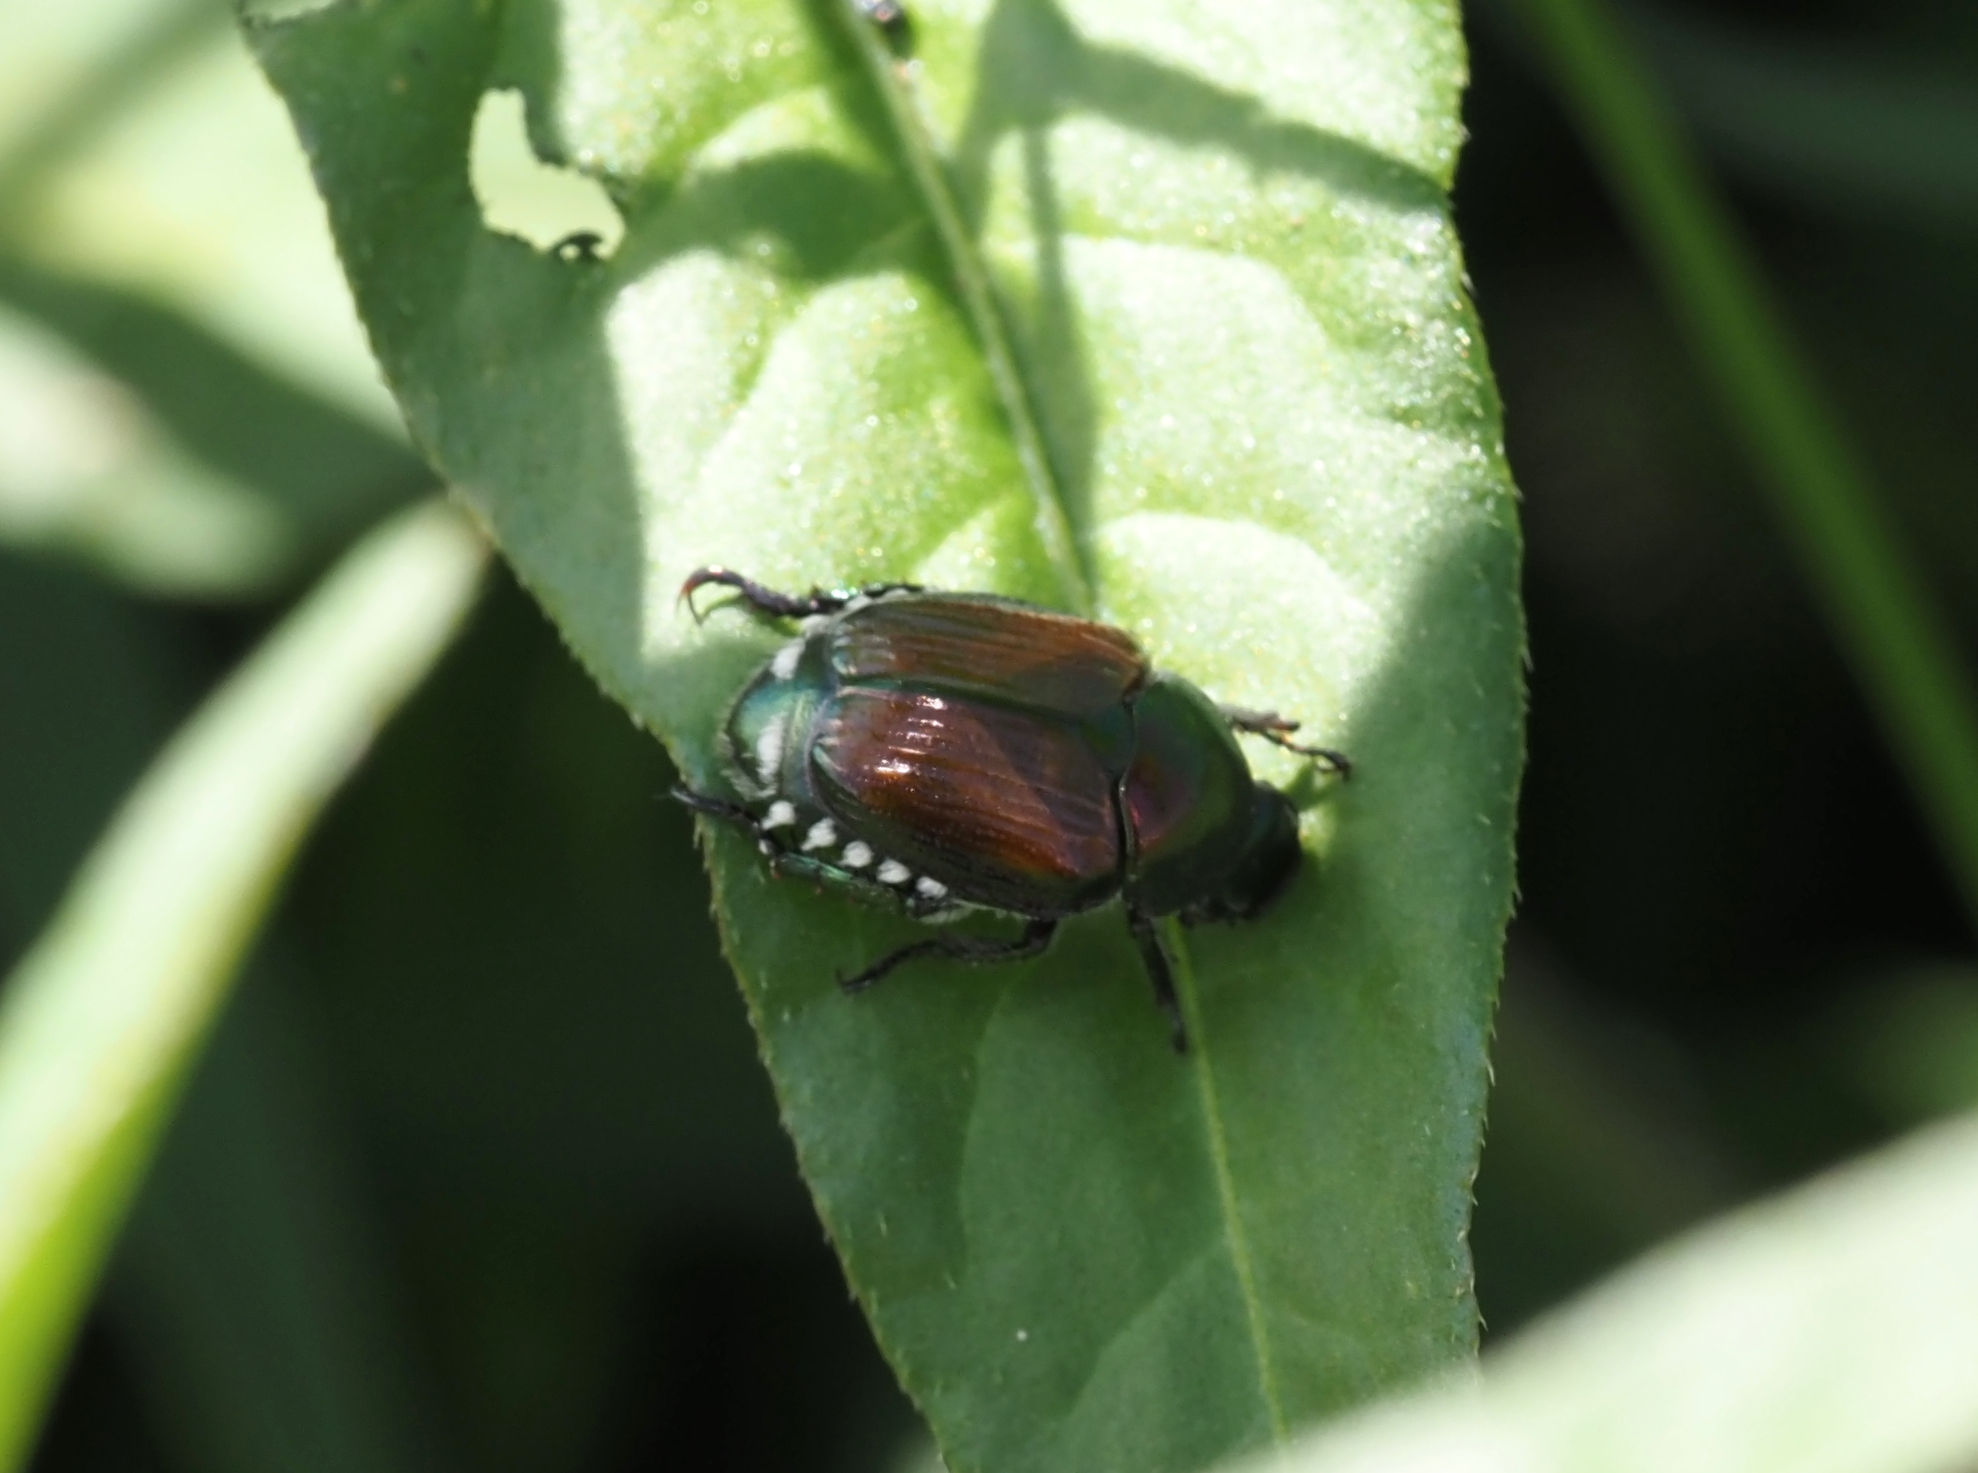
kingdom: Animalia
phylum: Arthropoda
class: Insecta
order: Coleoptera
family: Scarabaeidae
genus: Popillia
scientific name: Popillia japonica
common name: Japanese beetle
